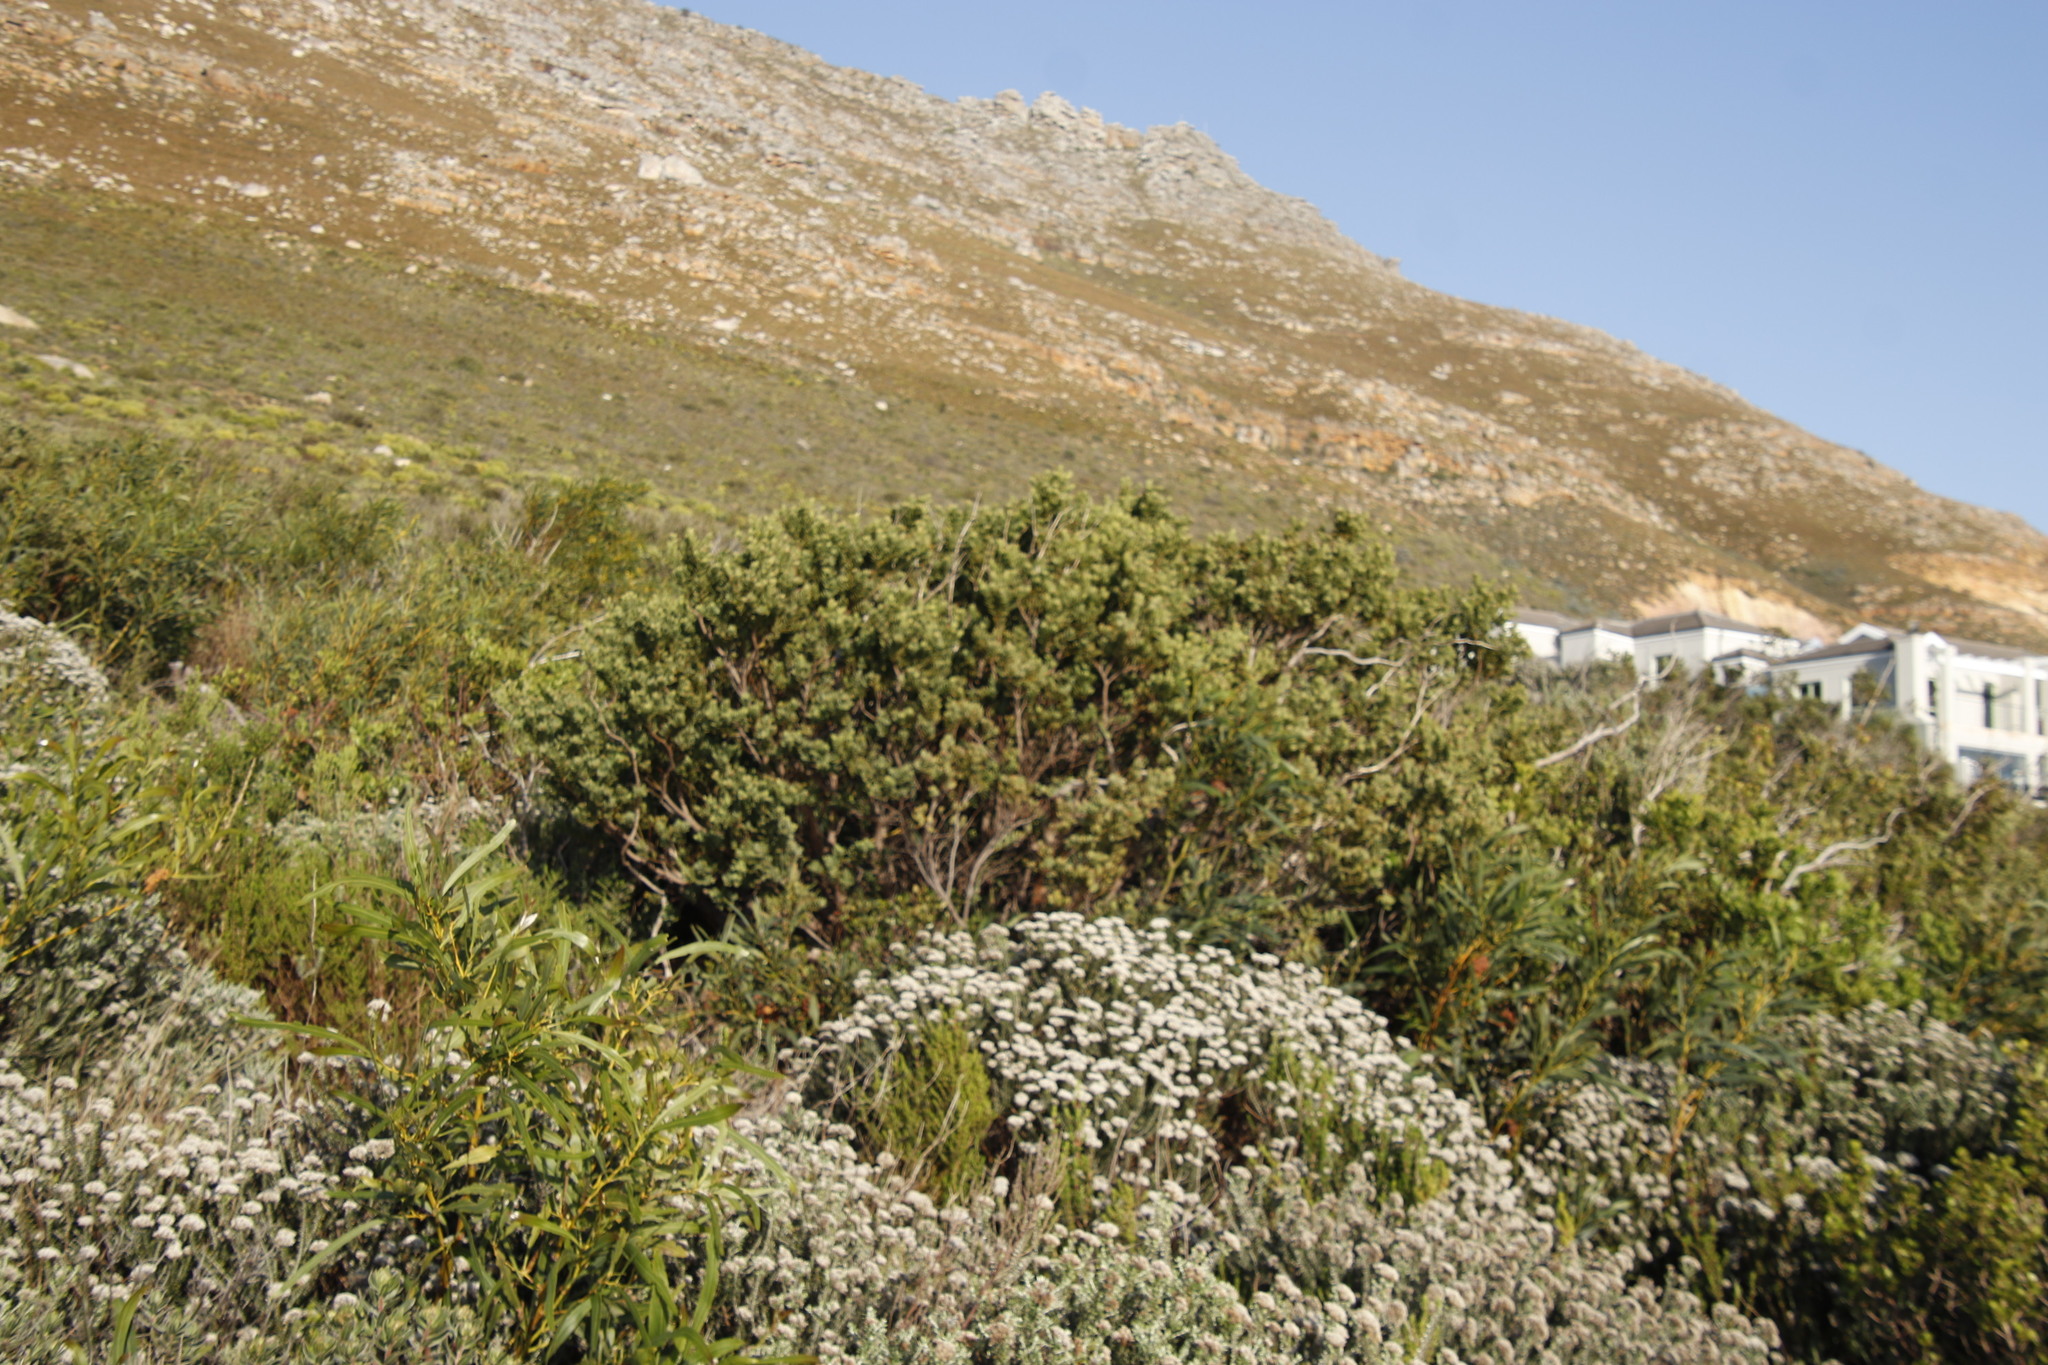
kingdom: Plantae
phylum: Tracheophyta
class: Magnoliopsida
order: Santalales
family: Santalaceae
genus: Osyris
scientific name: Osyris compressa
